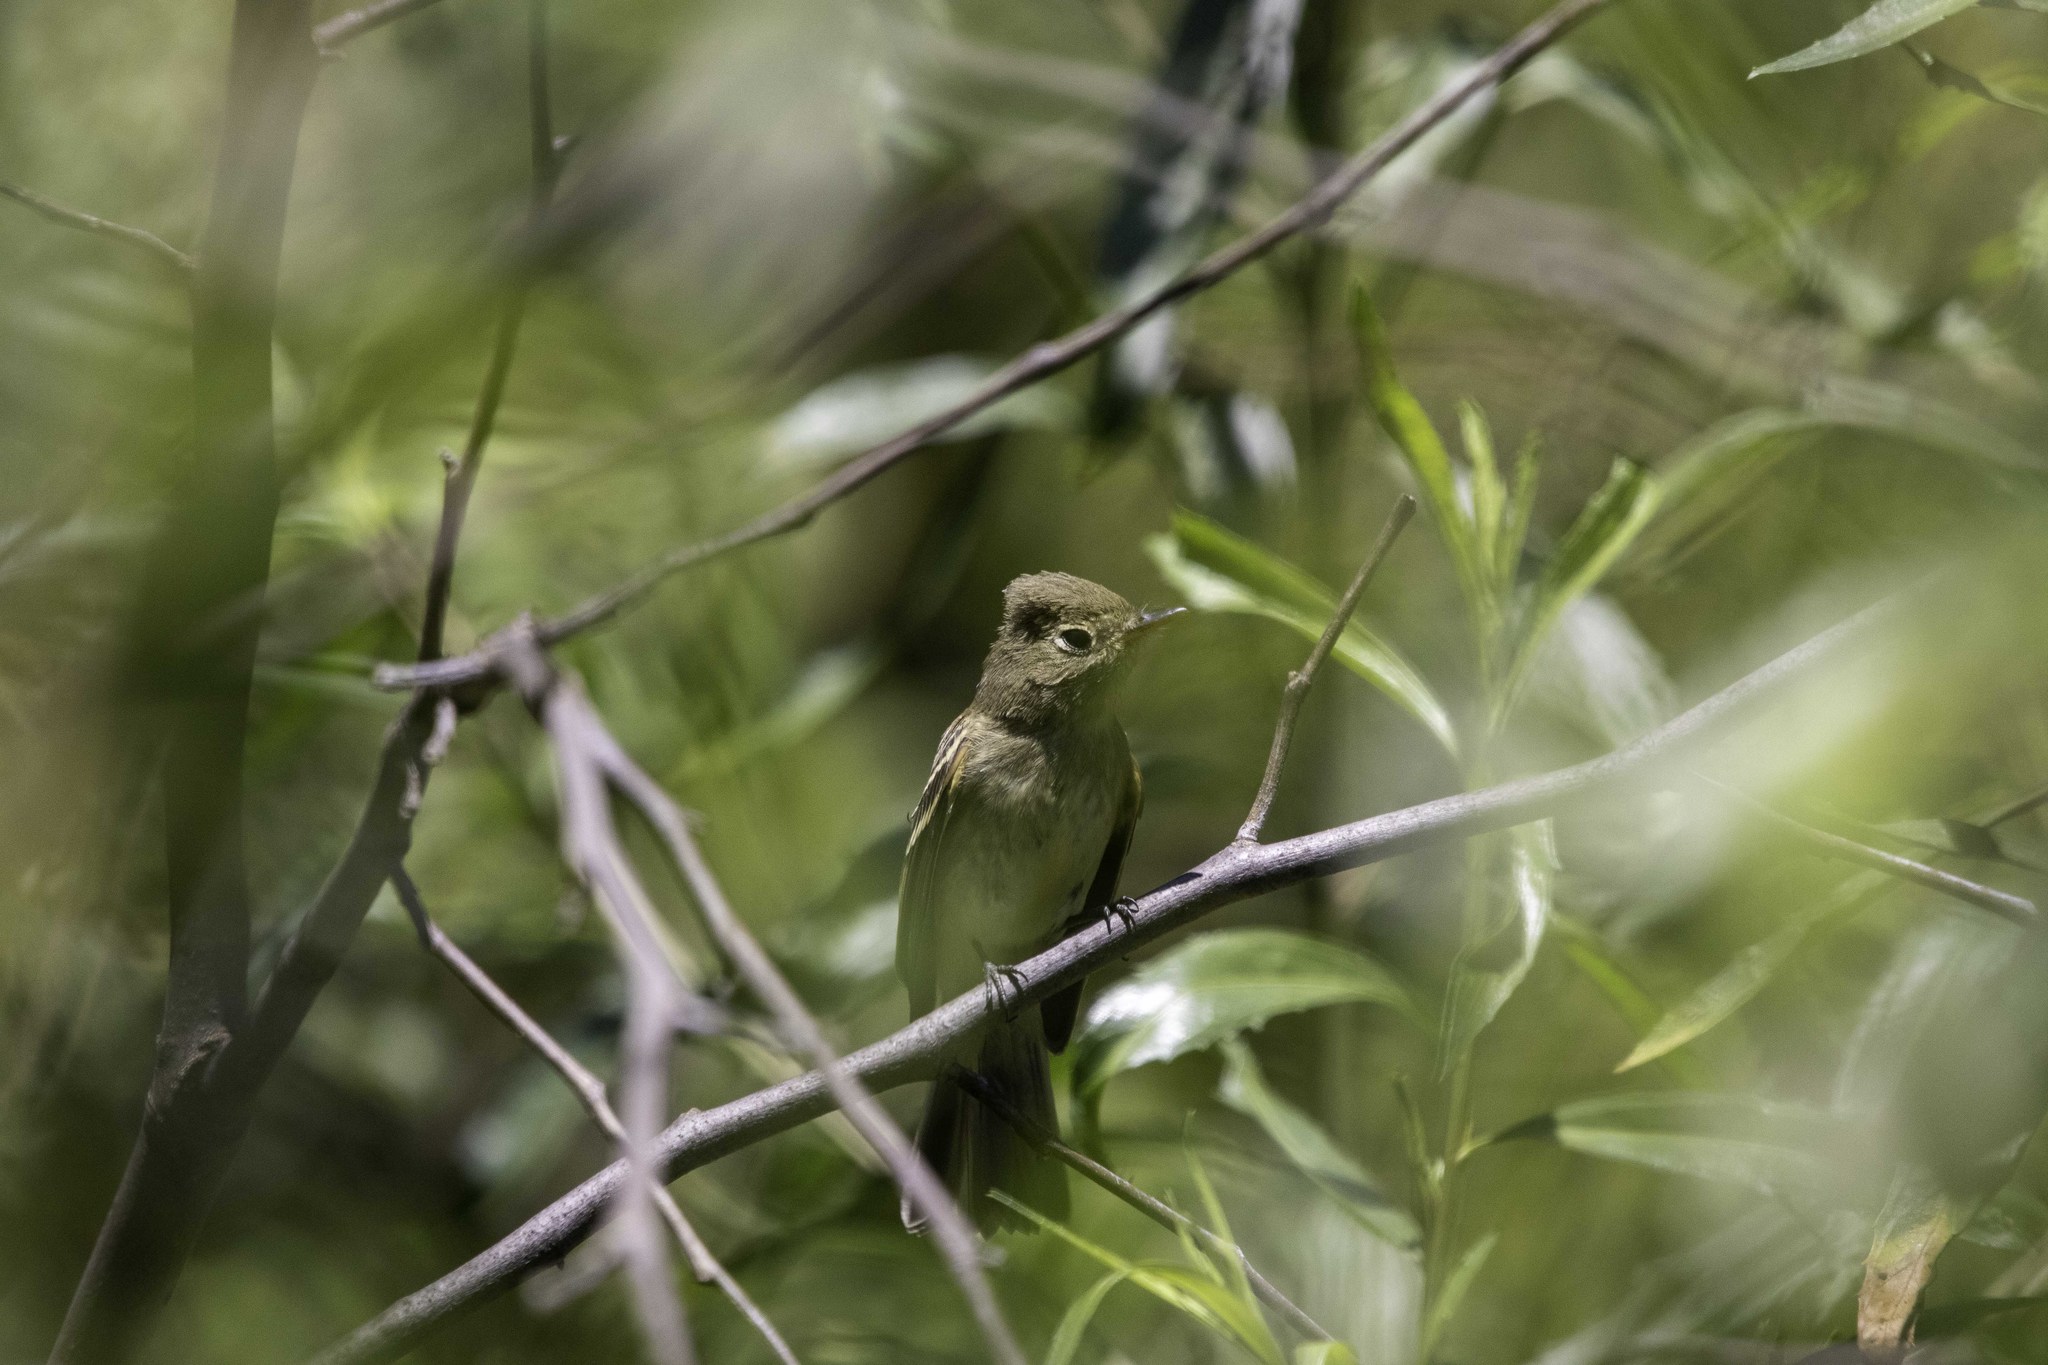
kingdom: Animalia
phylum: Chordata
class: Aves
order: Passeriformes
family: Tyrannidae
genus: Empidonax
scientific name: Empidonax difficilis
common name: Pacific-slope flycatcher
